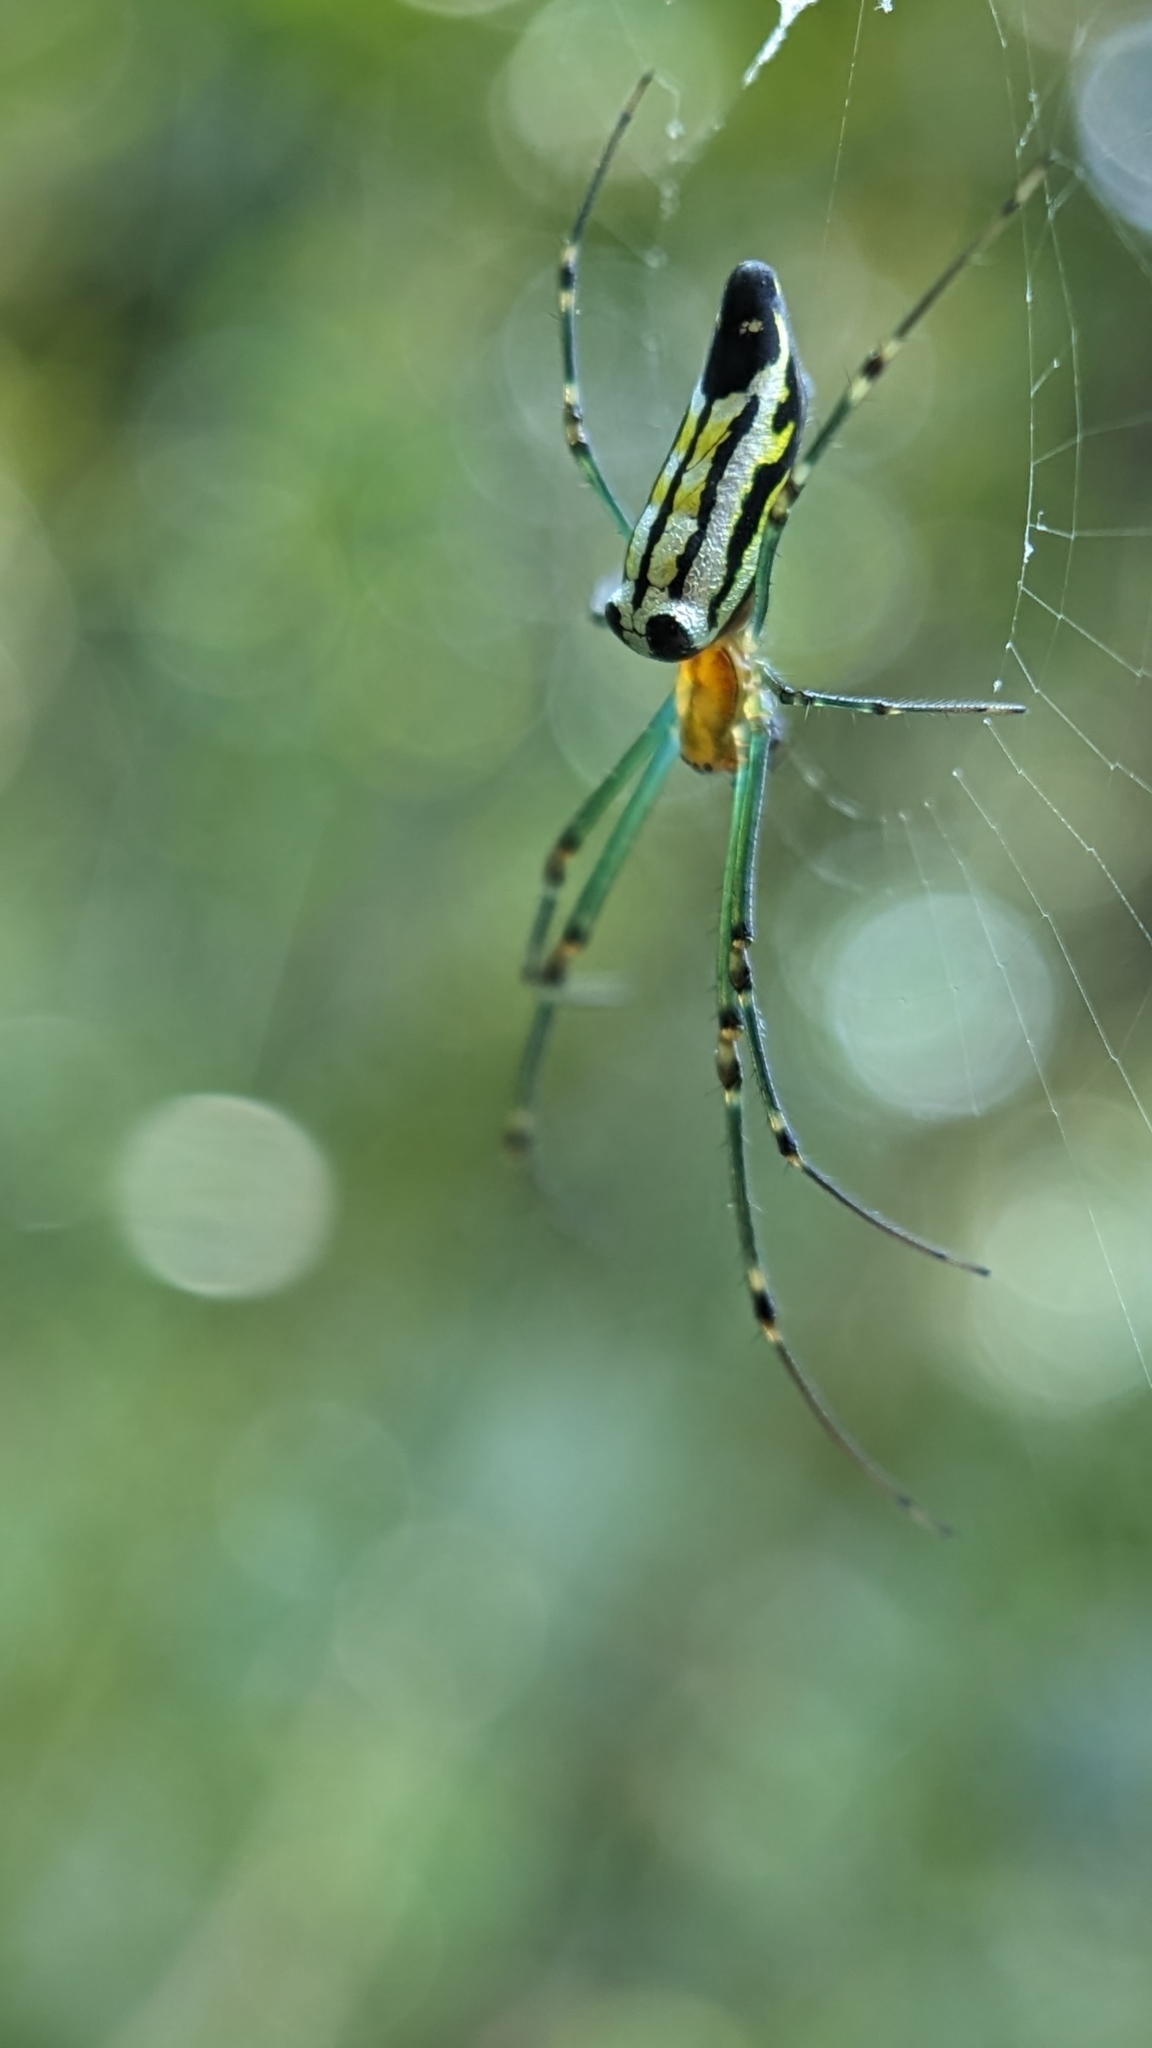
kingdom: Animalia
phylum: Arthropoda
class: Arachnida
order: Araneae
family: Tetragnathidae
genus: Leucauge
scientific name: Leucauge decorata
